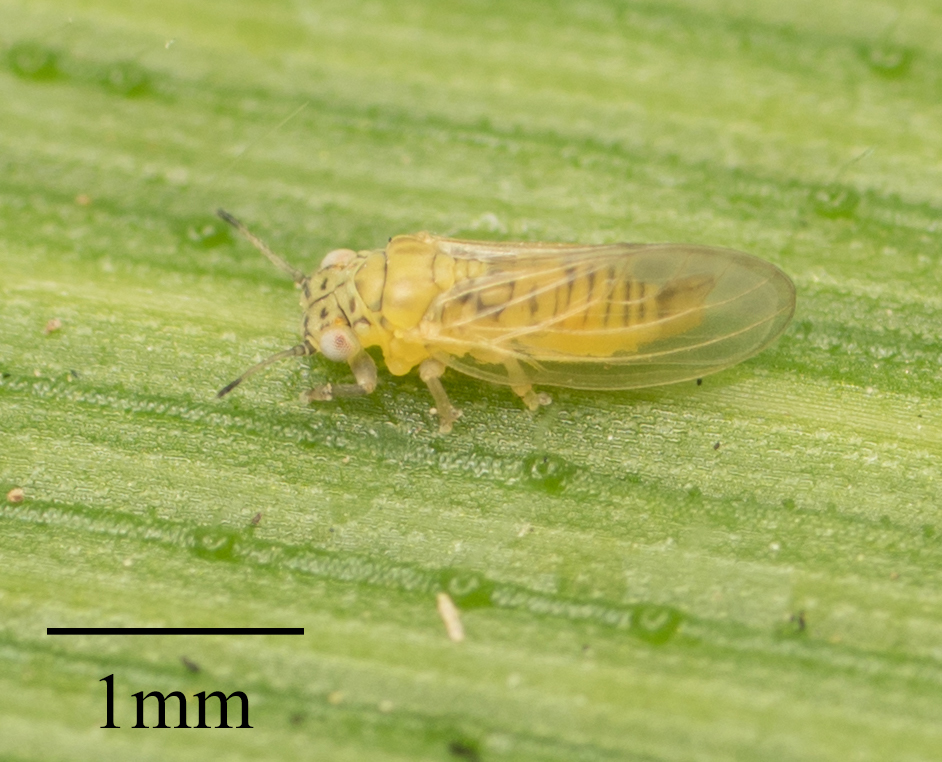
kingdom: Animalia
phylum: Arthropoda
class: Insecta
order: Hemiptera
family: Aphalaridae
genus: Blastopsylla
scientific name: Blastopsylla occidentalis
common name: Reg gum lerp psyllid
